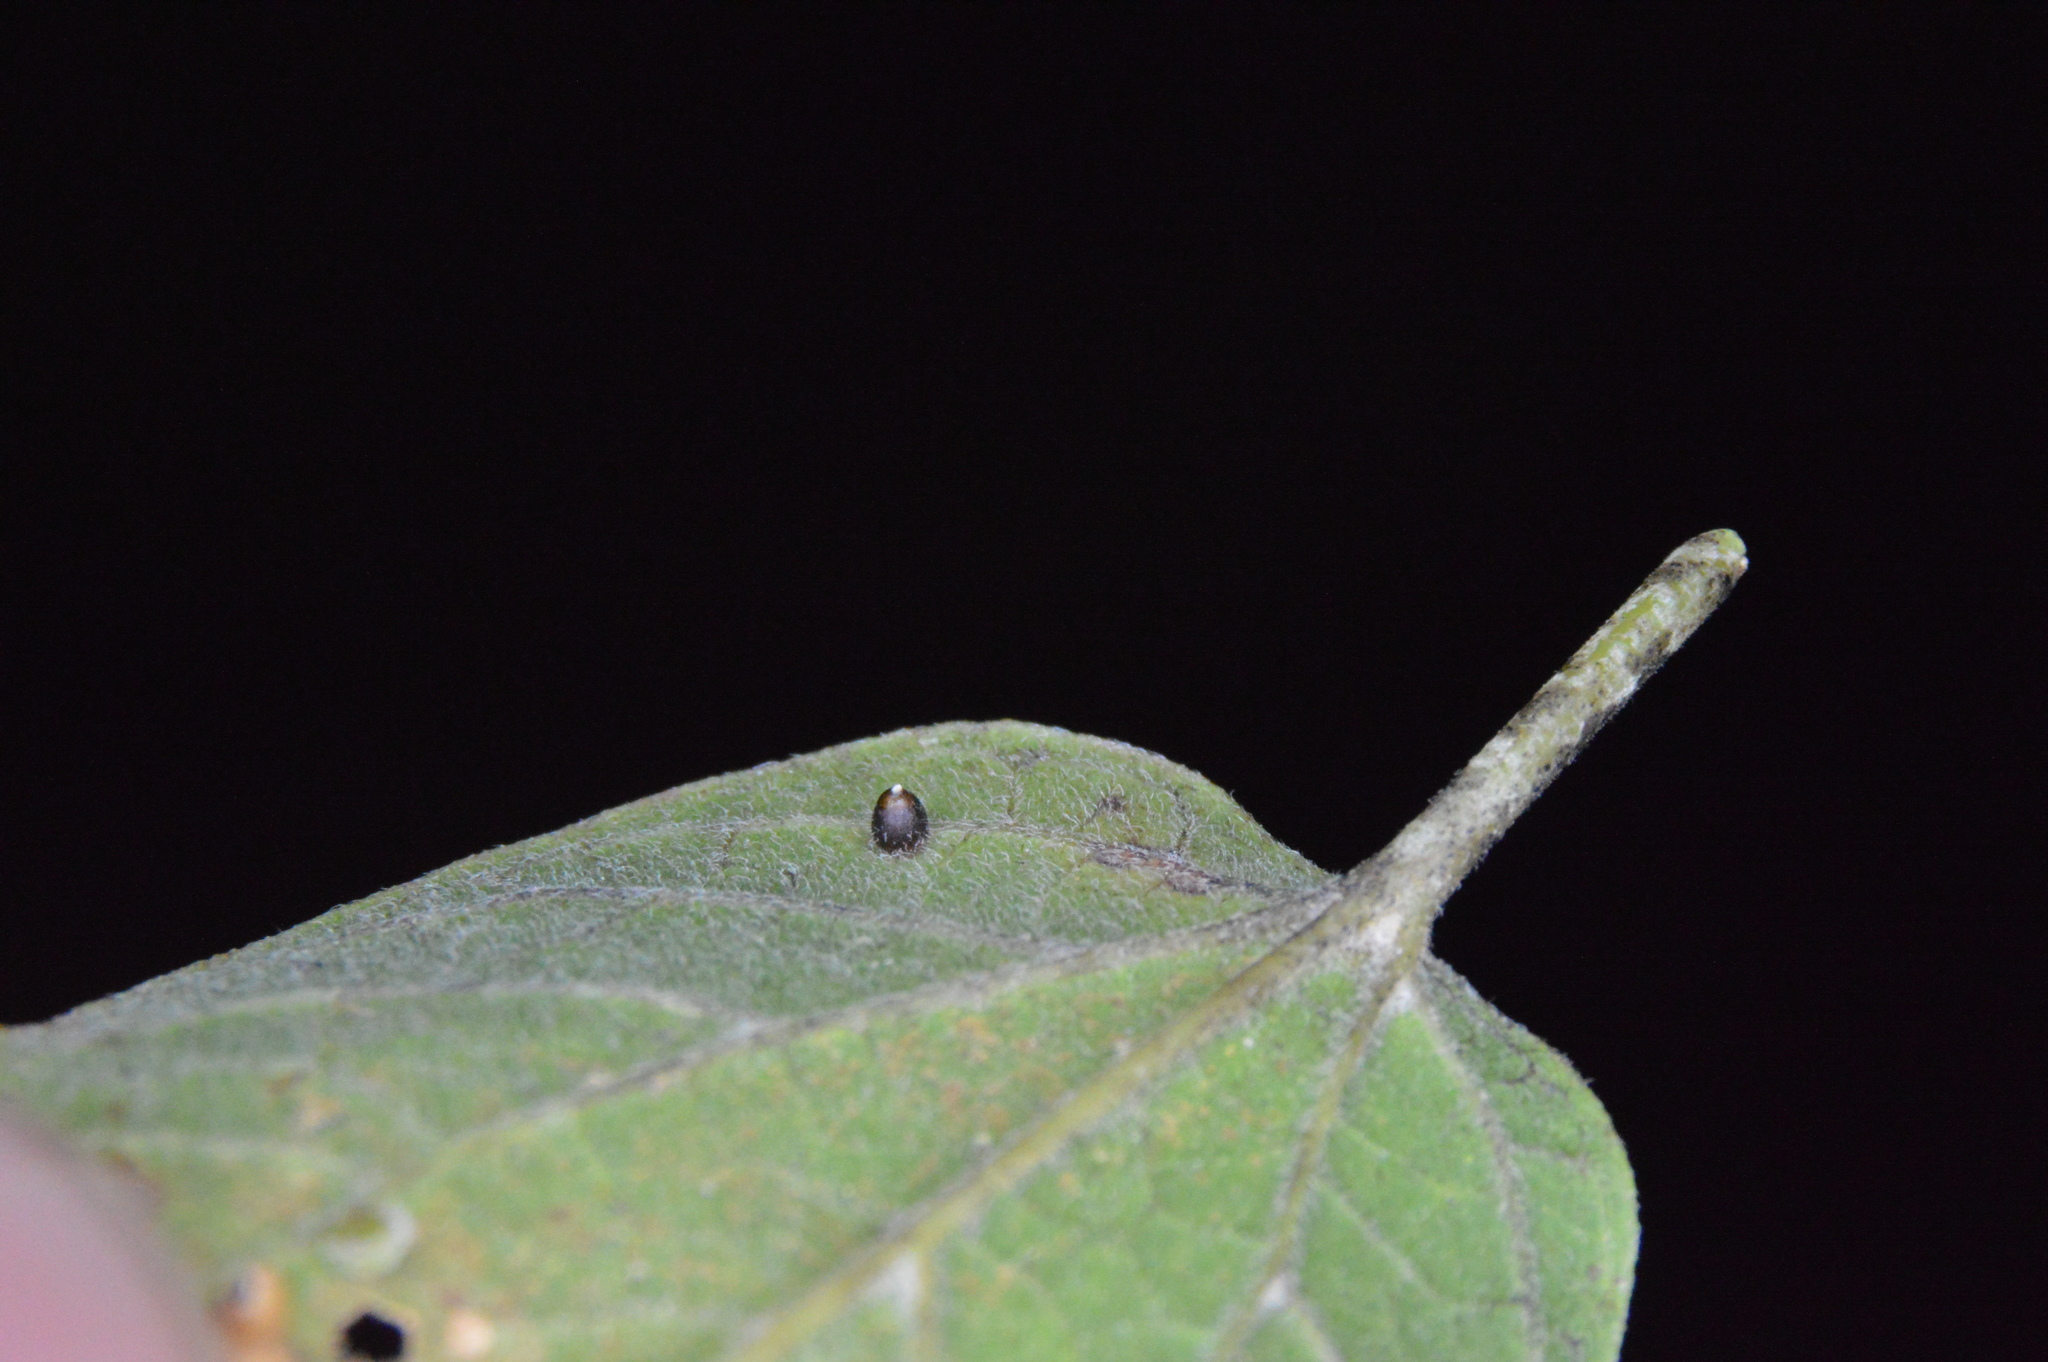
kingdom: Animalia
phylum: Arthropoda
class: Insecta
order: Diptera
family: Cecidomyiidae
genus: Celticecis
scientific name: Celticecis cupiformis
